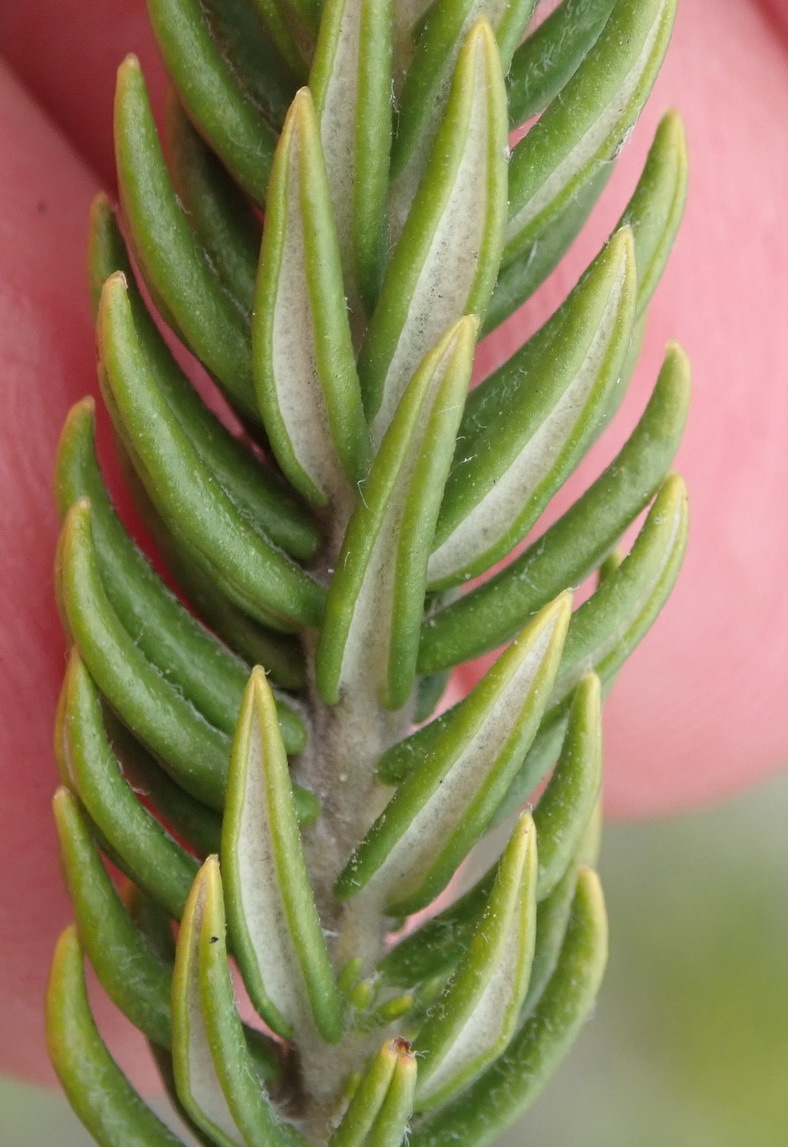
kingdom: Plantae
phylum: Tracheophyta
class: Magnoliopsida
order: Rosales
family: Rhamnaceae
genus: Phylica
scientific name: Phylica litoralis
